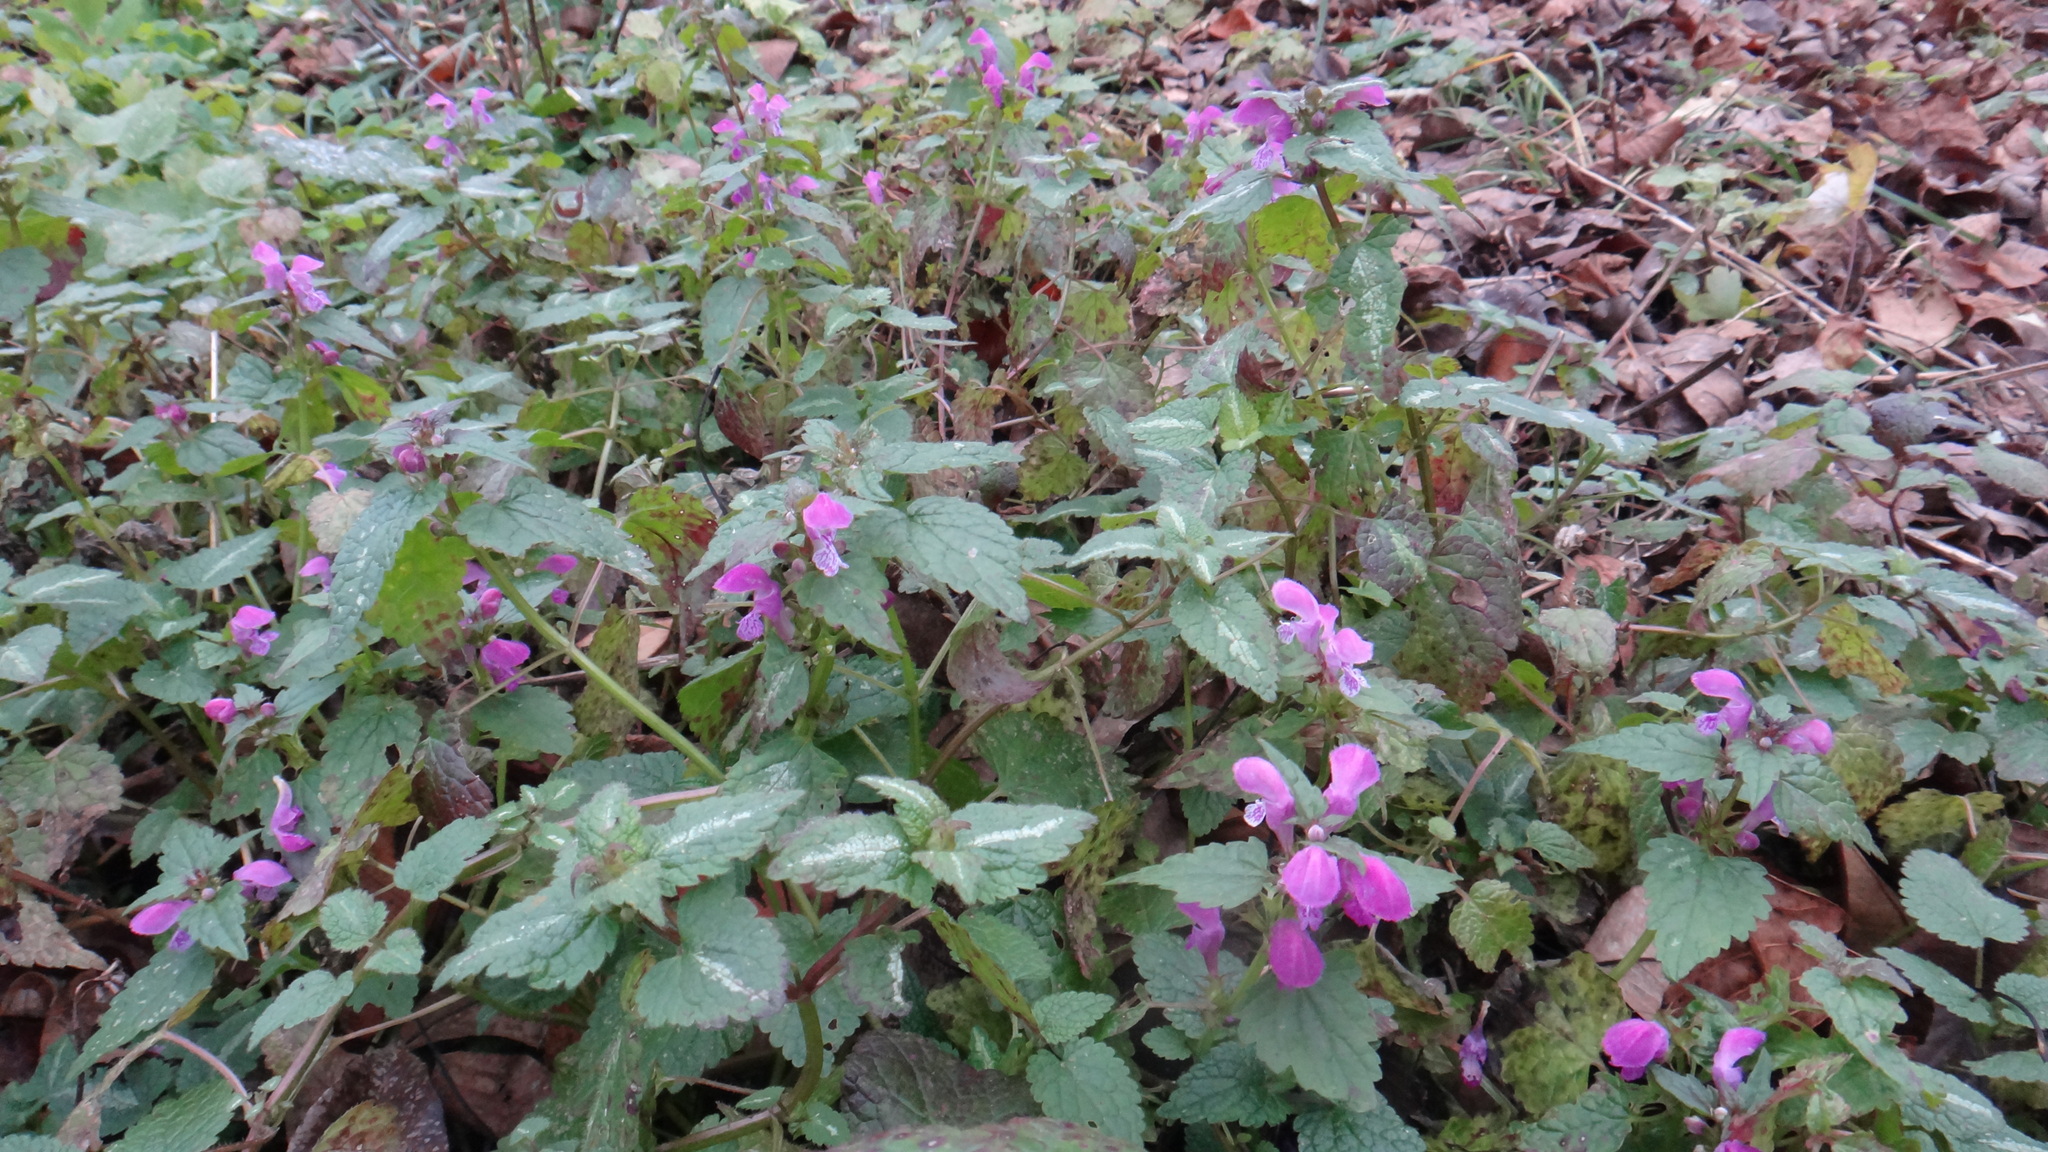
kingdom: Plantae
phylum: Tracheophyta
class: Magnoliopsida
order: Lamiales
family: Lamiaceae
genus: Lamium
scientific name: Lamium maculatum
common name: Spotted dead-nettle
